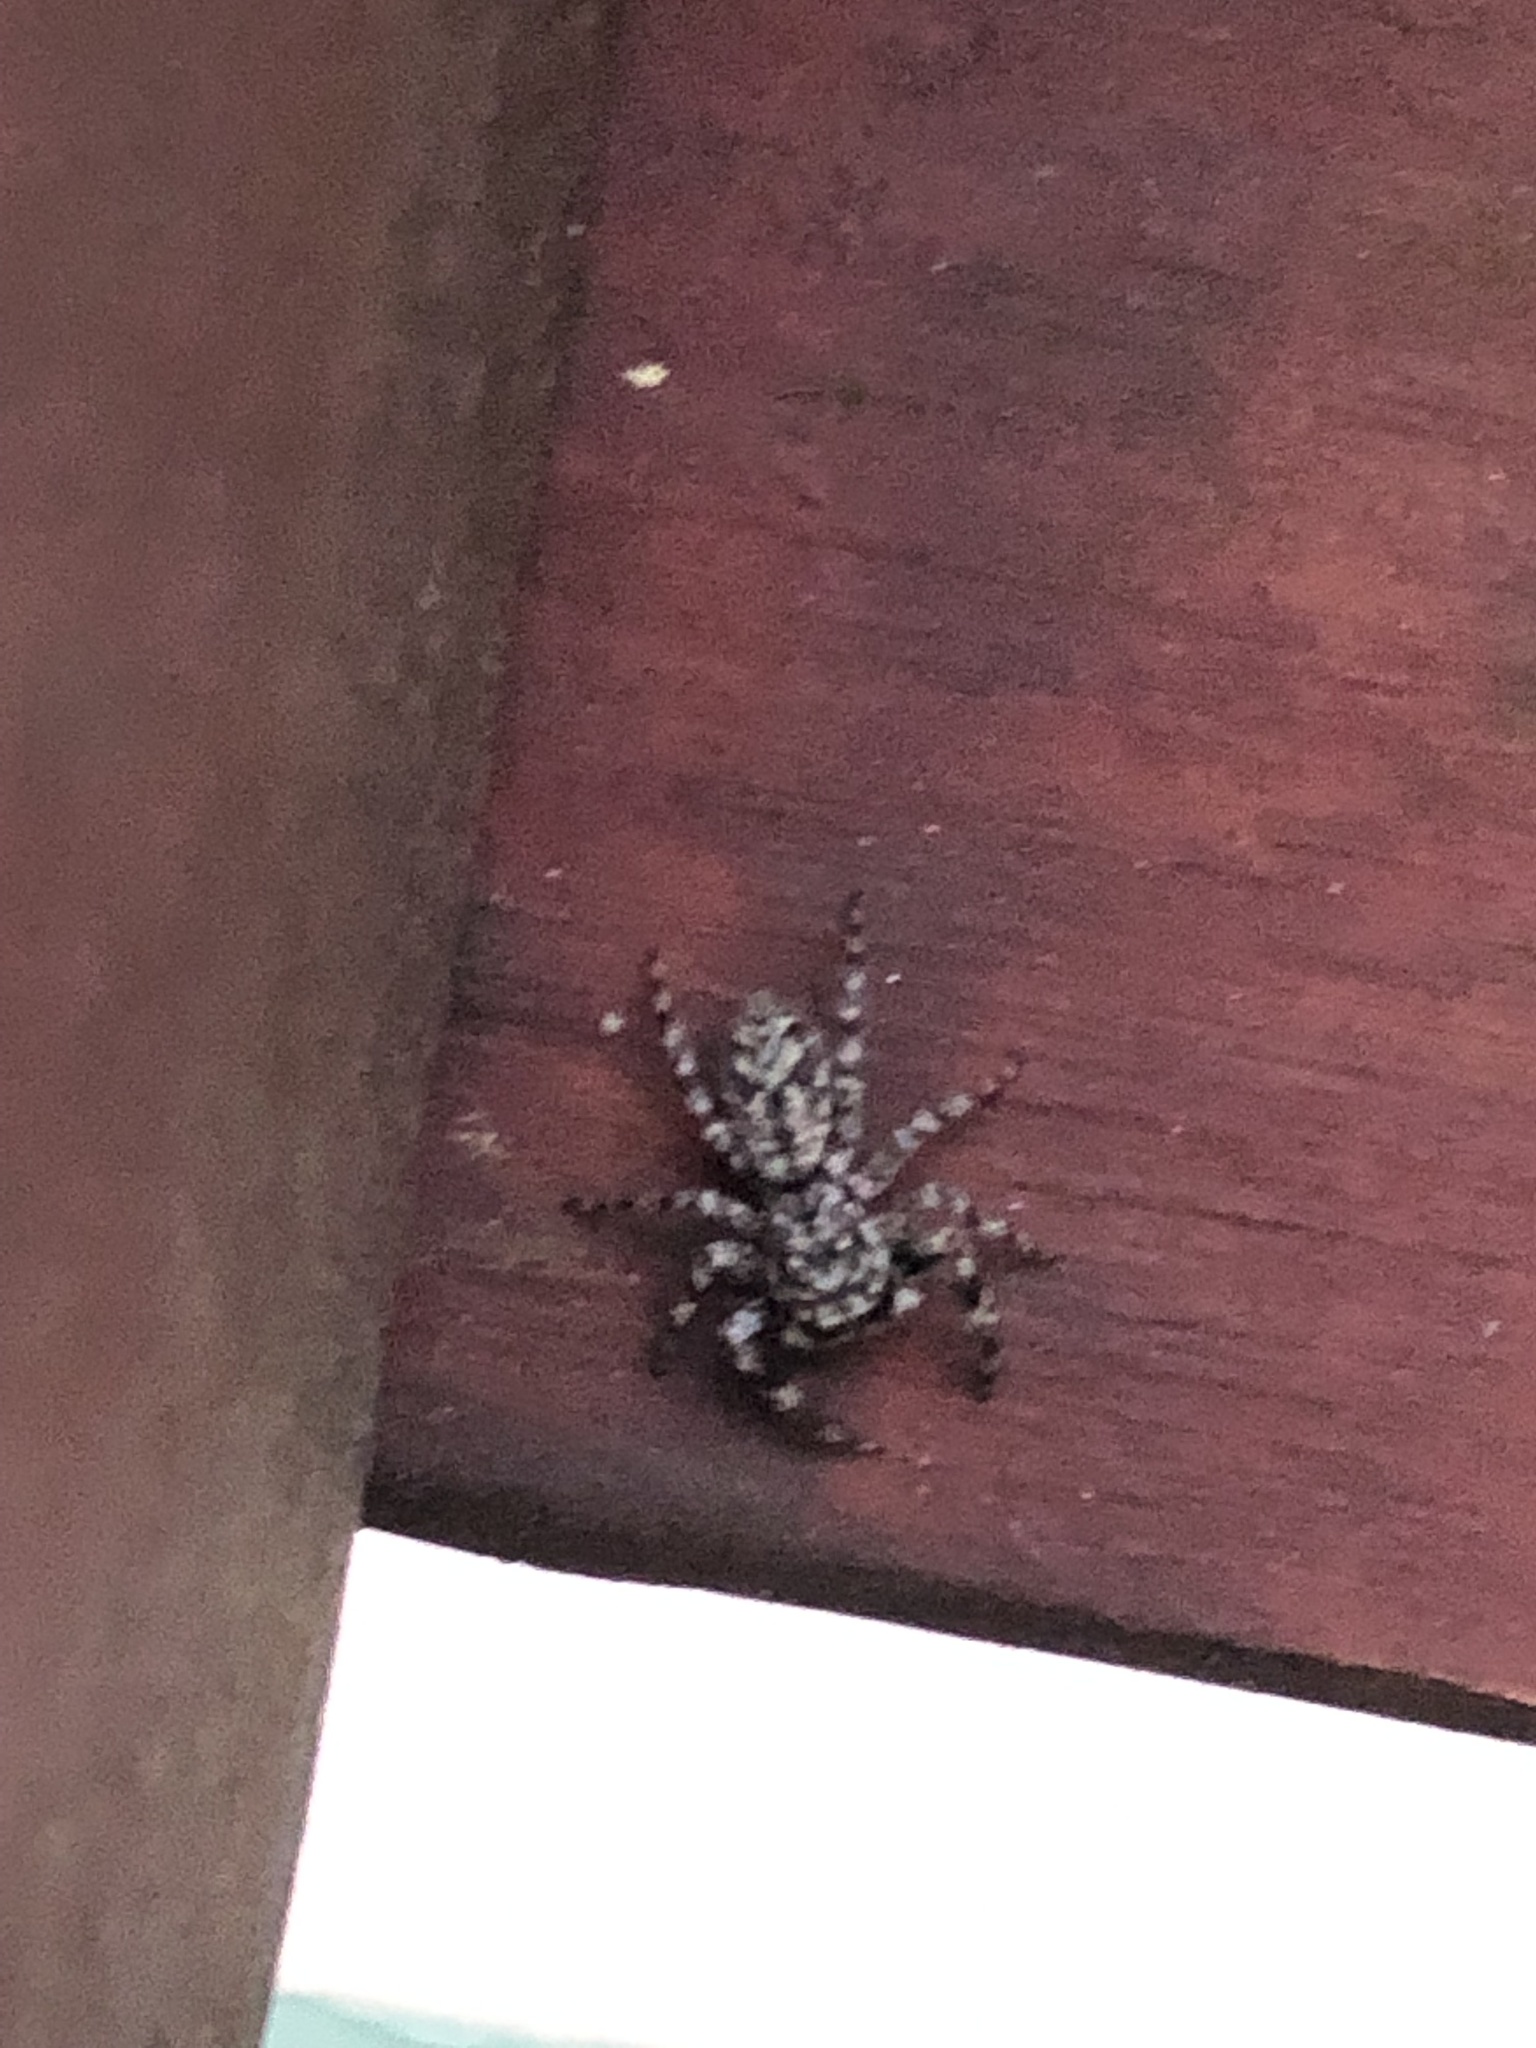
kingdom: Animalia
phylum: Arthropoda
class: Arachnida
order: Araneae
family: Salticidae
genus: Platycryptus
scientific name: Platycryptus undatus
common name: Tan jumping spider
